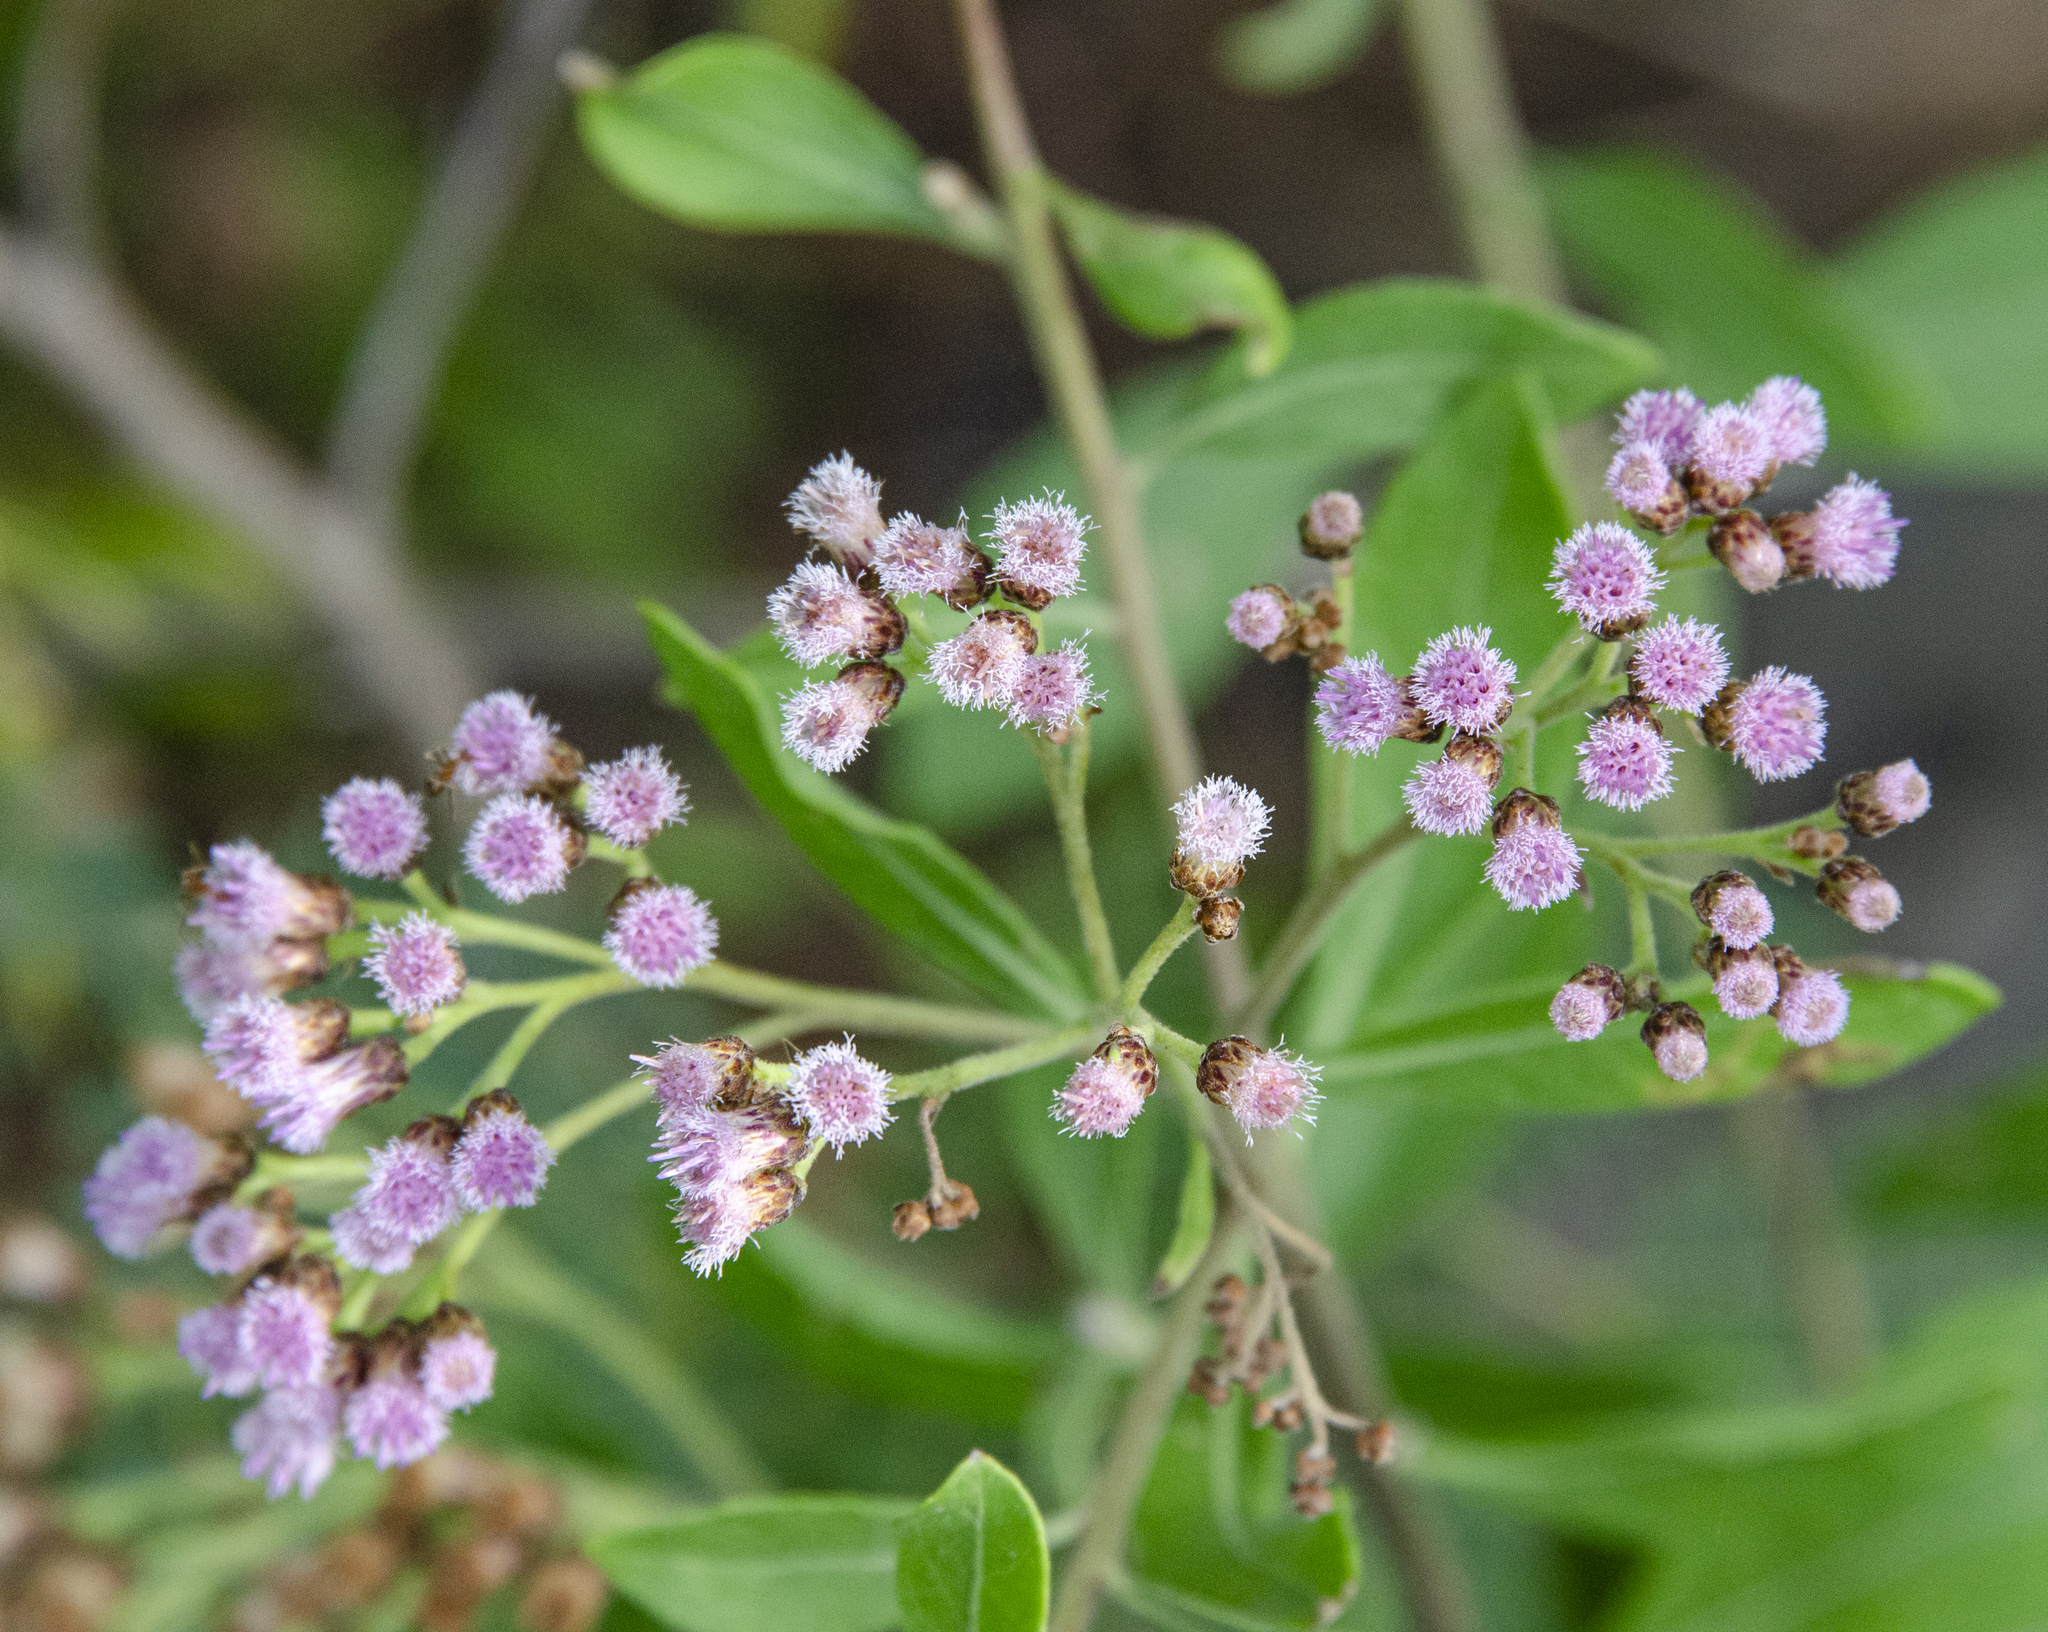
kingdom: Plantae
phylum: Tracheophyta
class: Magnoliopsida
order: Asterales
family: Asteraceae
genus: Pluchea
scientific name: Pluchea fosbergii
